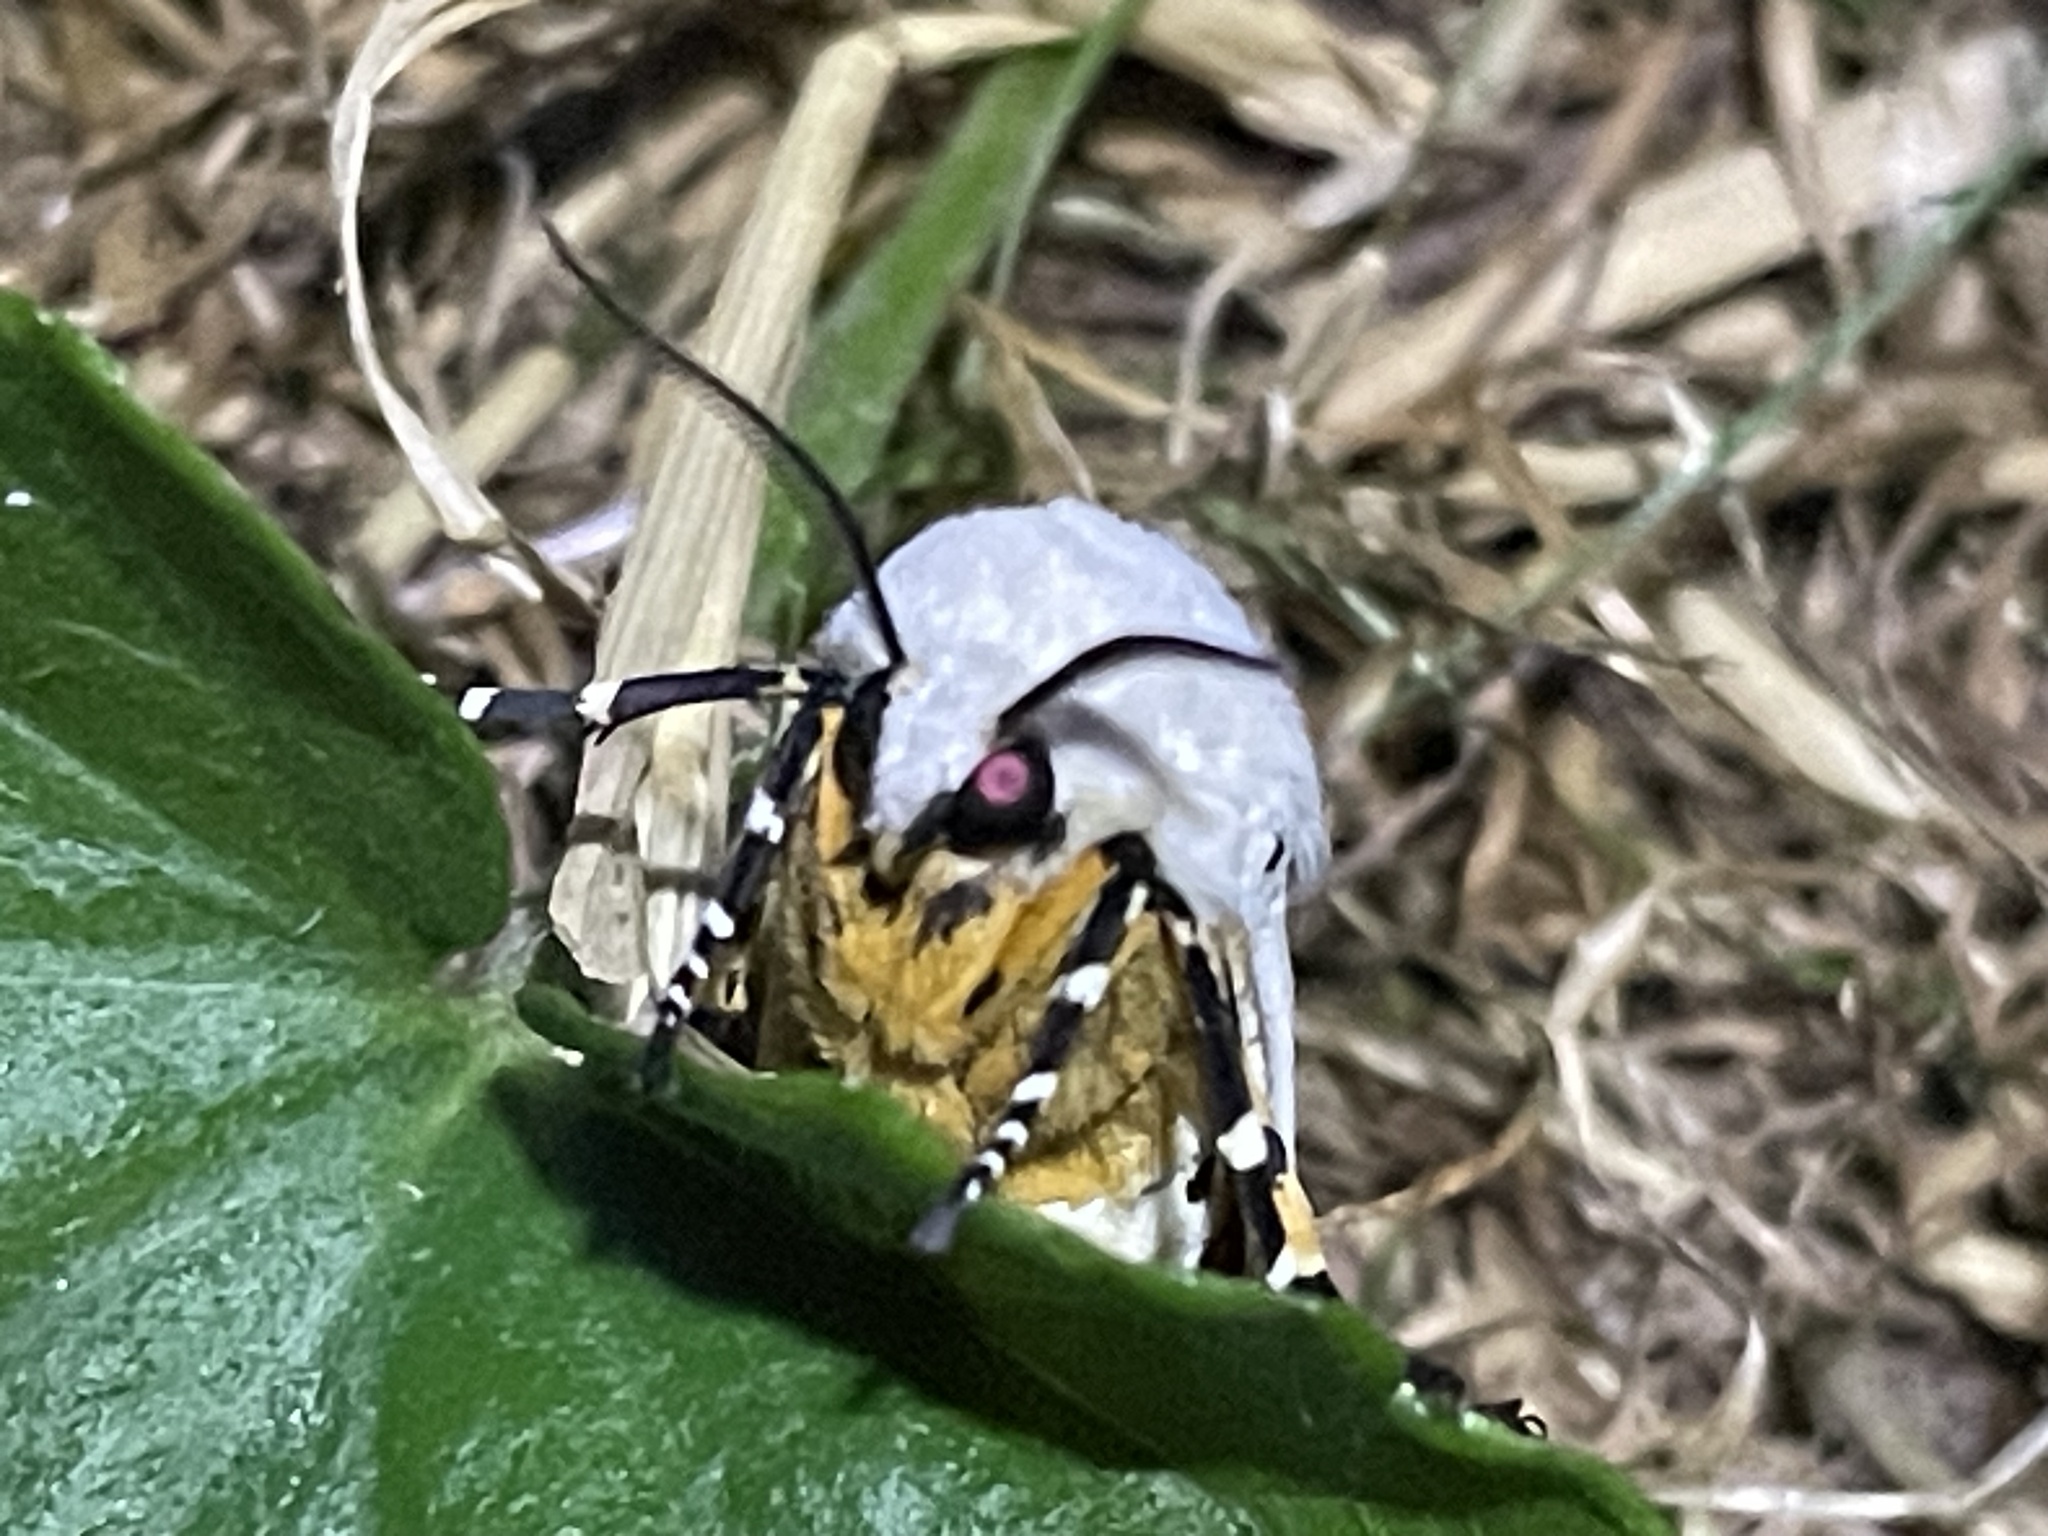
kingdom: Animalia
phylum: Arthropoda
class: Insecta
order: Lepidoptera
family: Erebidae
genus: Estigmene
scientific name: Estigmene acrea
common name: Salt marsh moth
